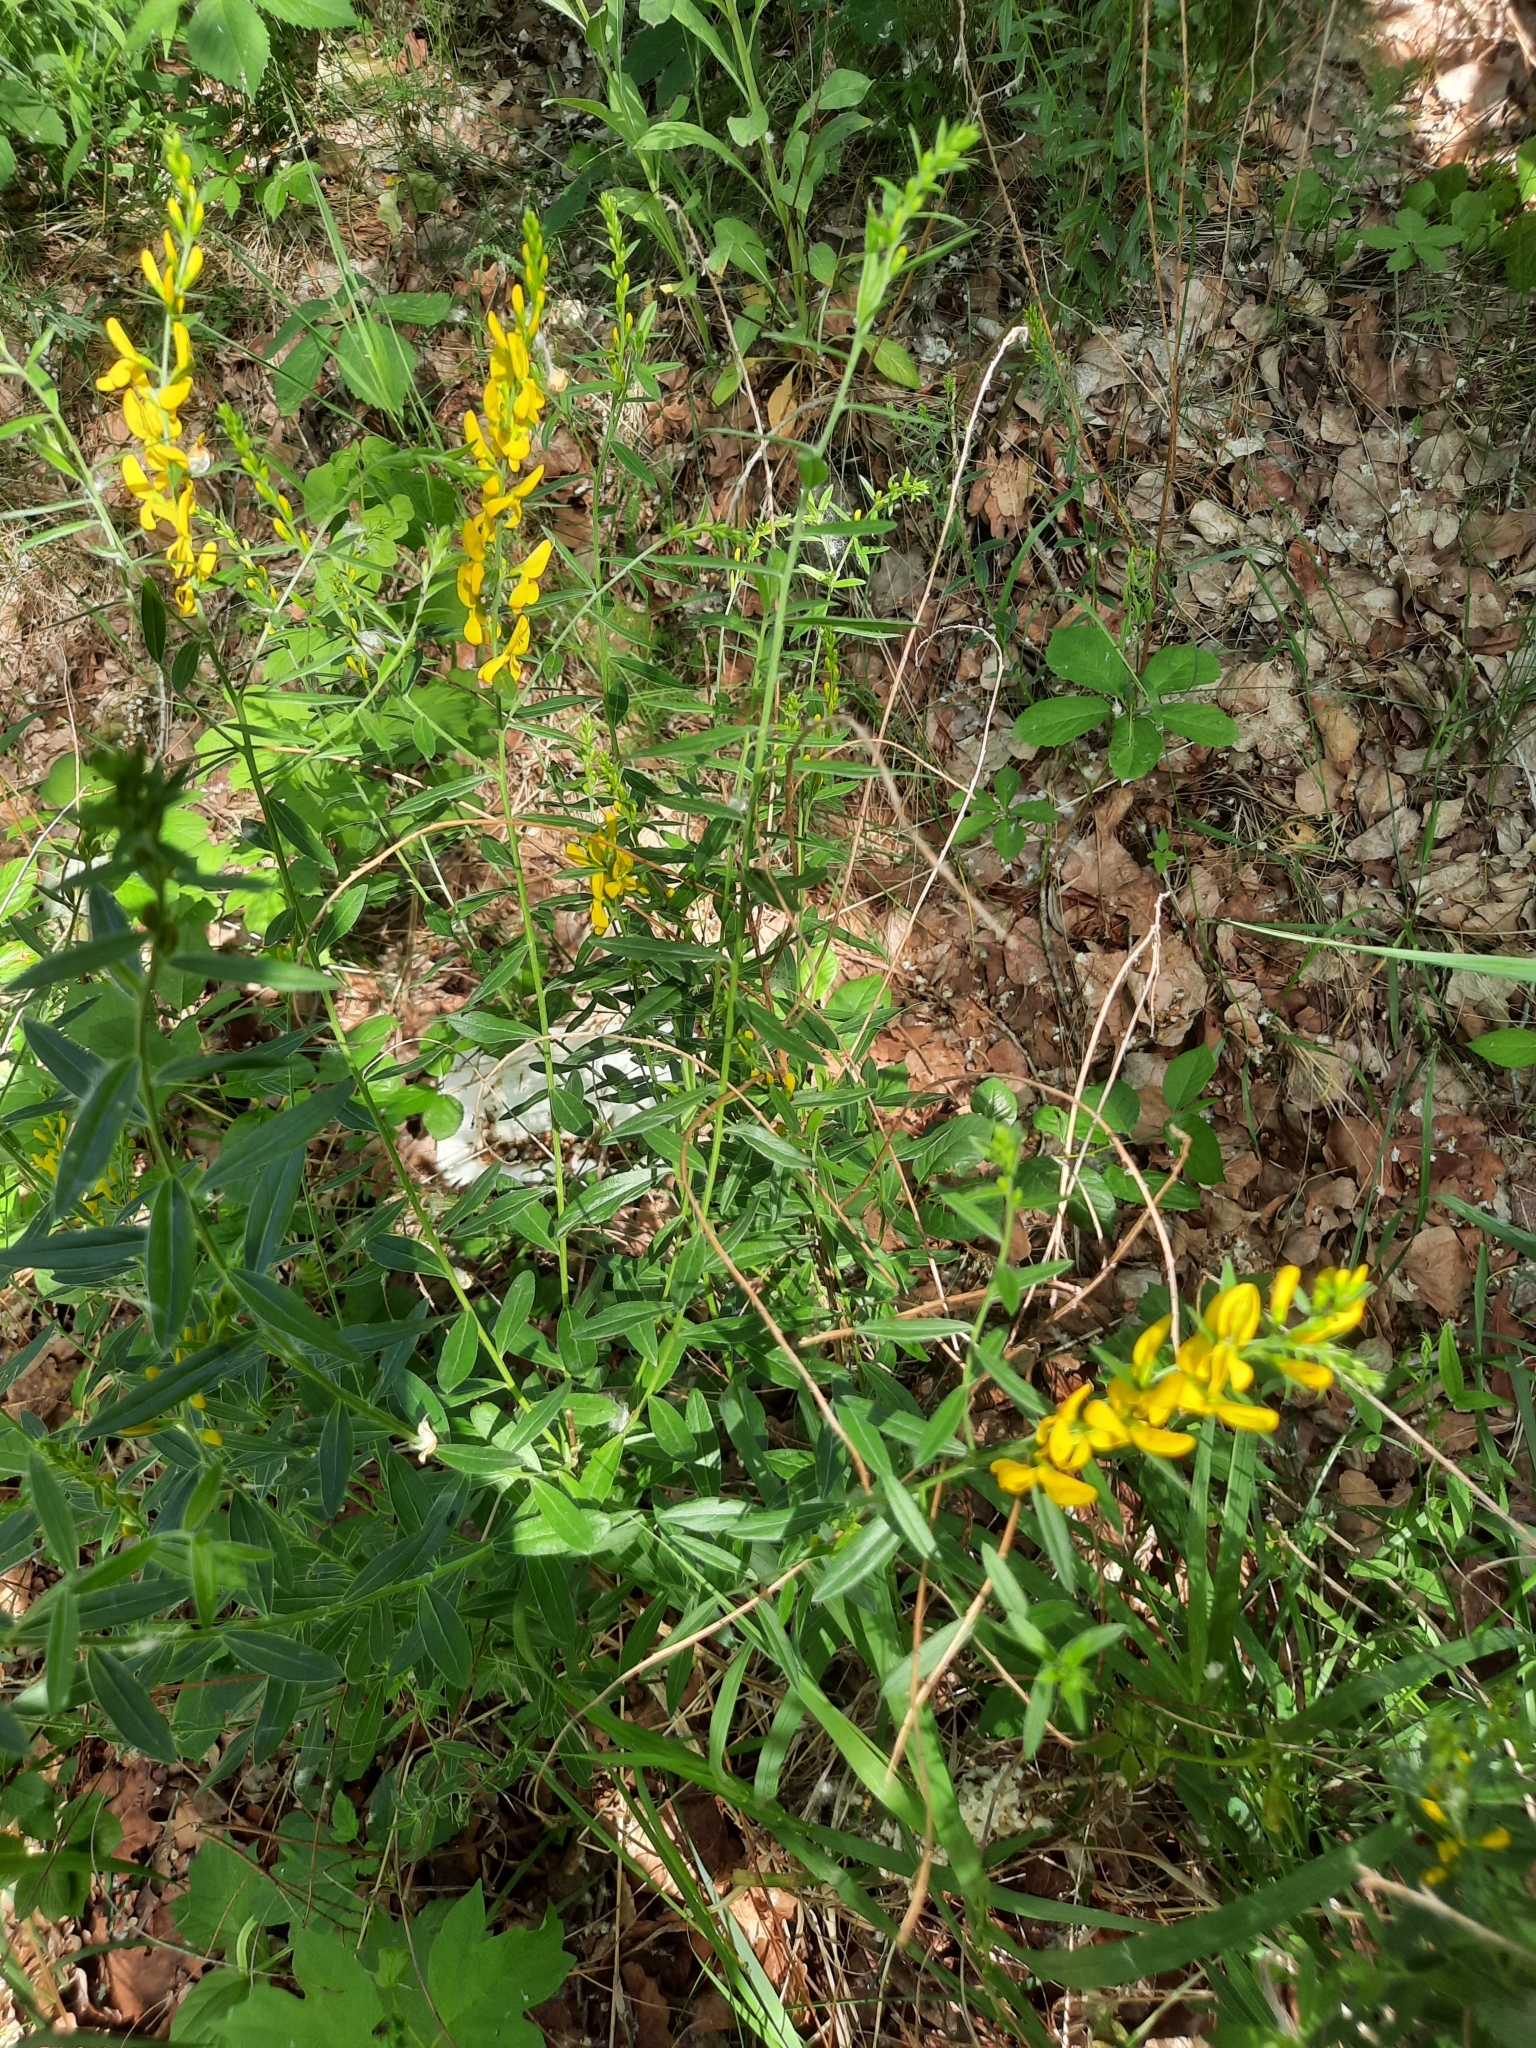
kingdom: Plantae
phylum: Tracheophyta
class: Magnoliopsida
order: Fabales
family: Fabaceae
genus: Genista
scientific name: Genista tinctoria
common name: Dyer's greenweed
